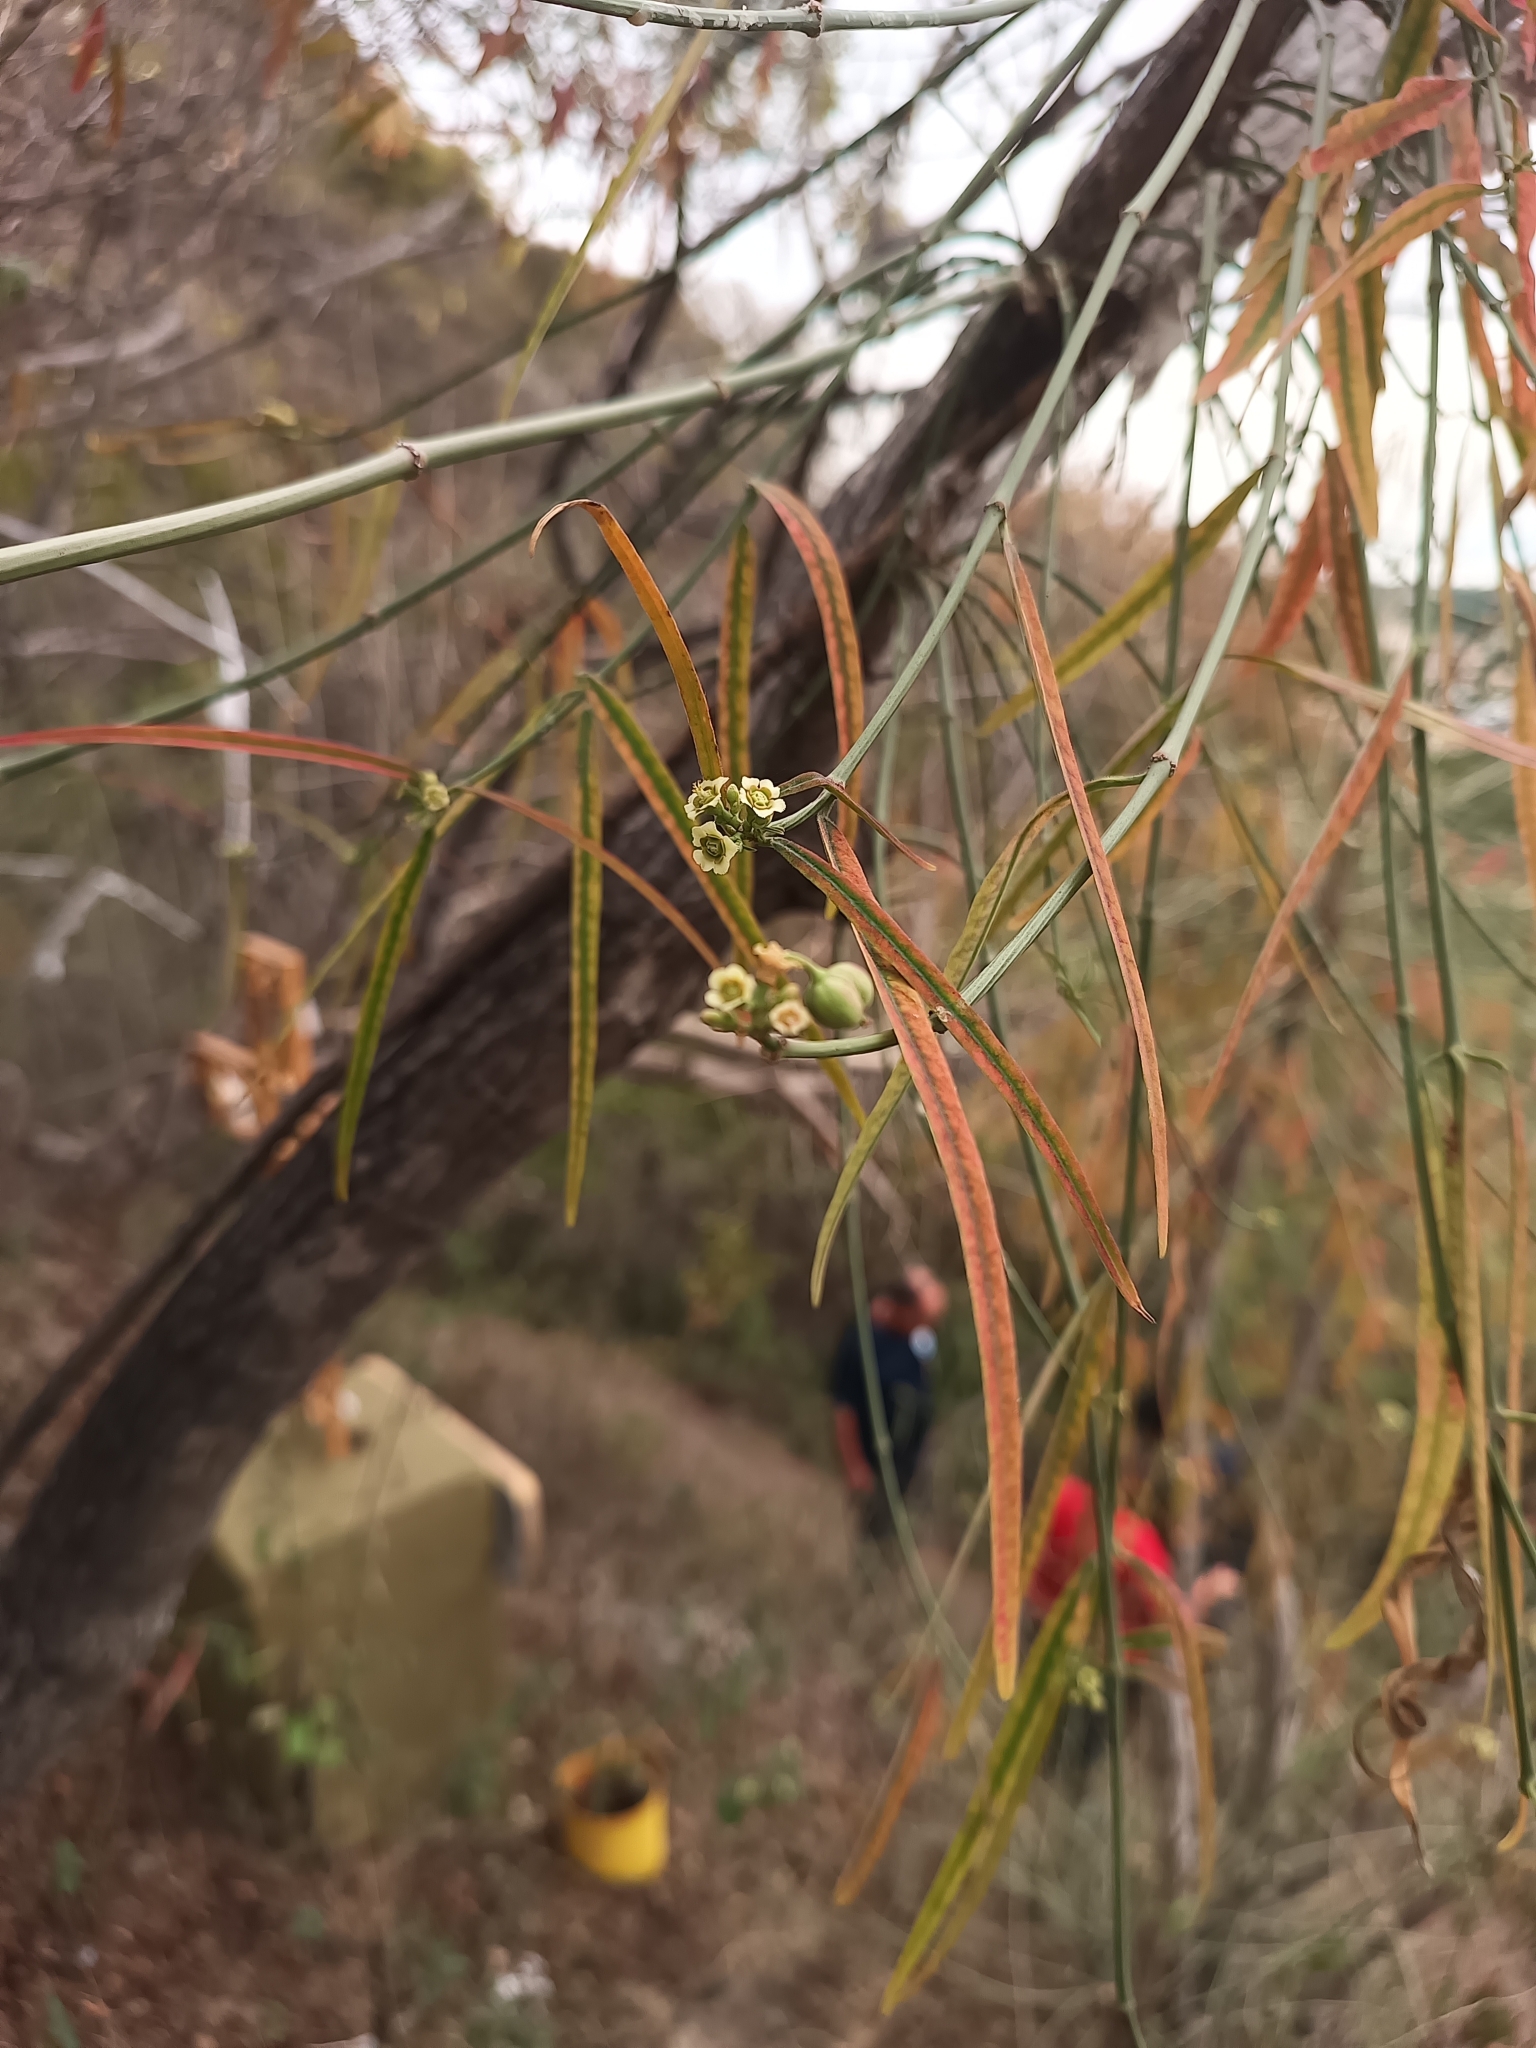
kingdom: Plantae
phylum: Tracheophyta
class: Magnoliopsida
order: Malpighiales
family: Euphorbiaceae
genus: Euphorbia
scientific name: Euphorbia sphaerorhiza
